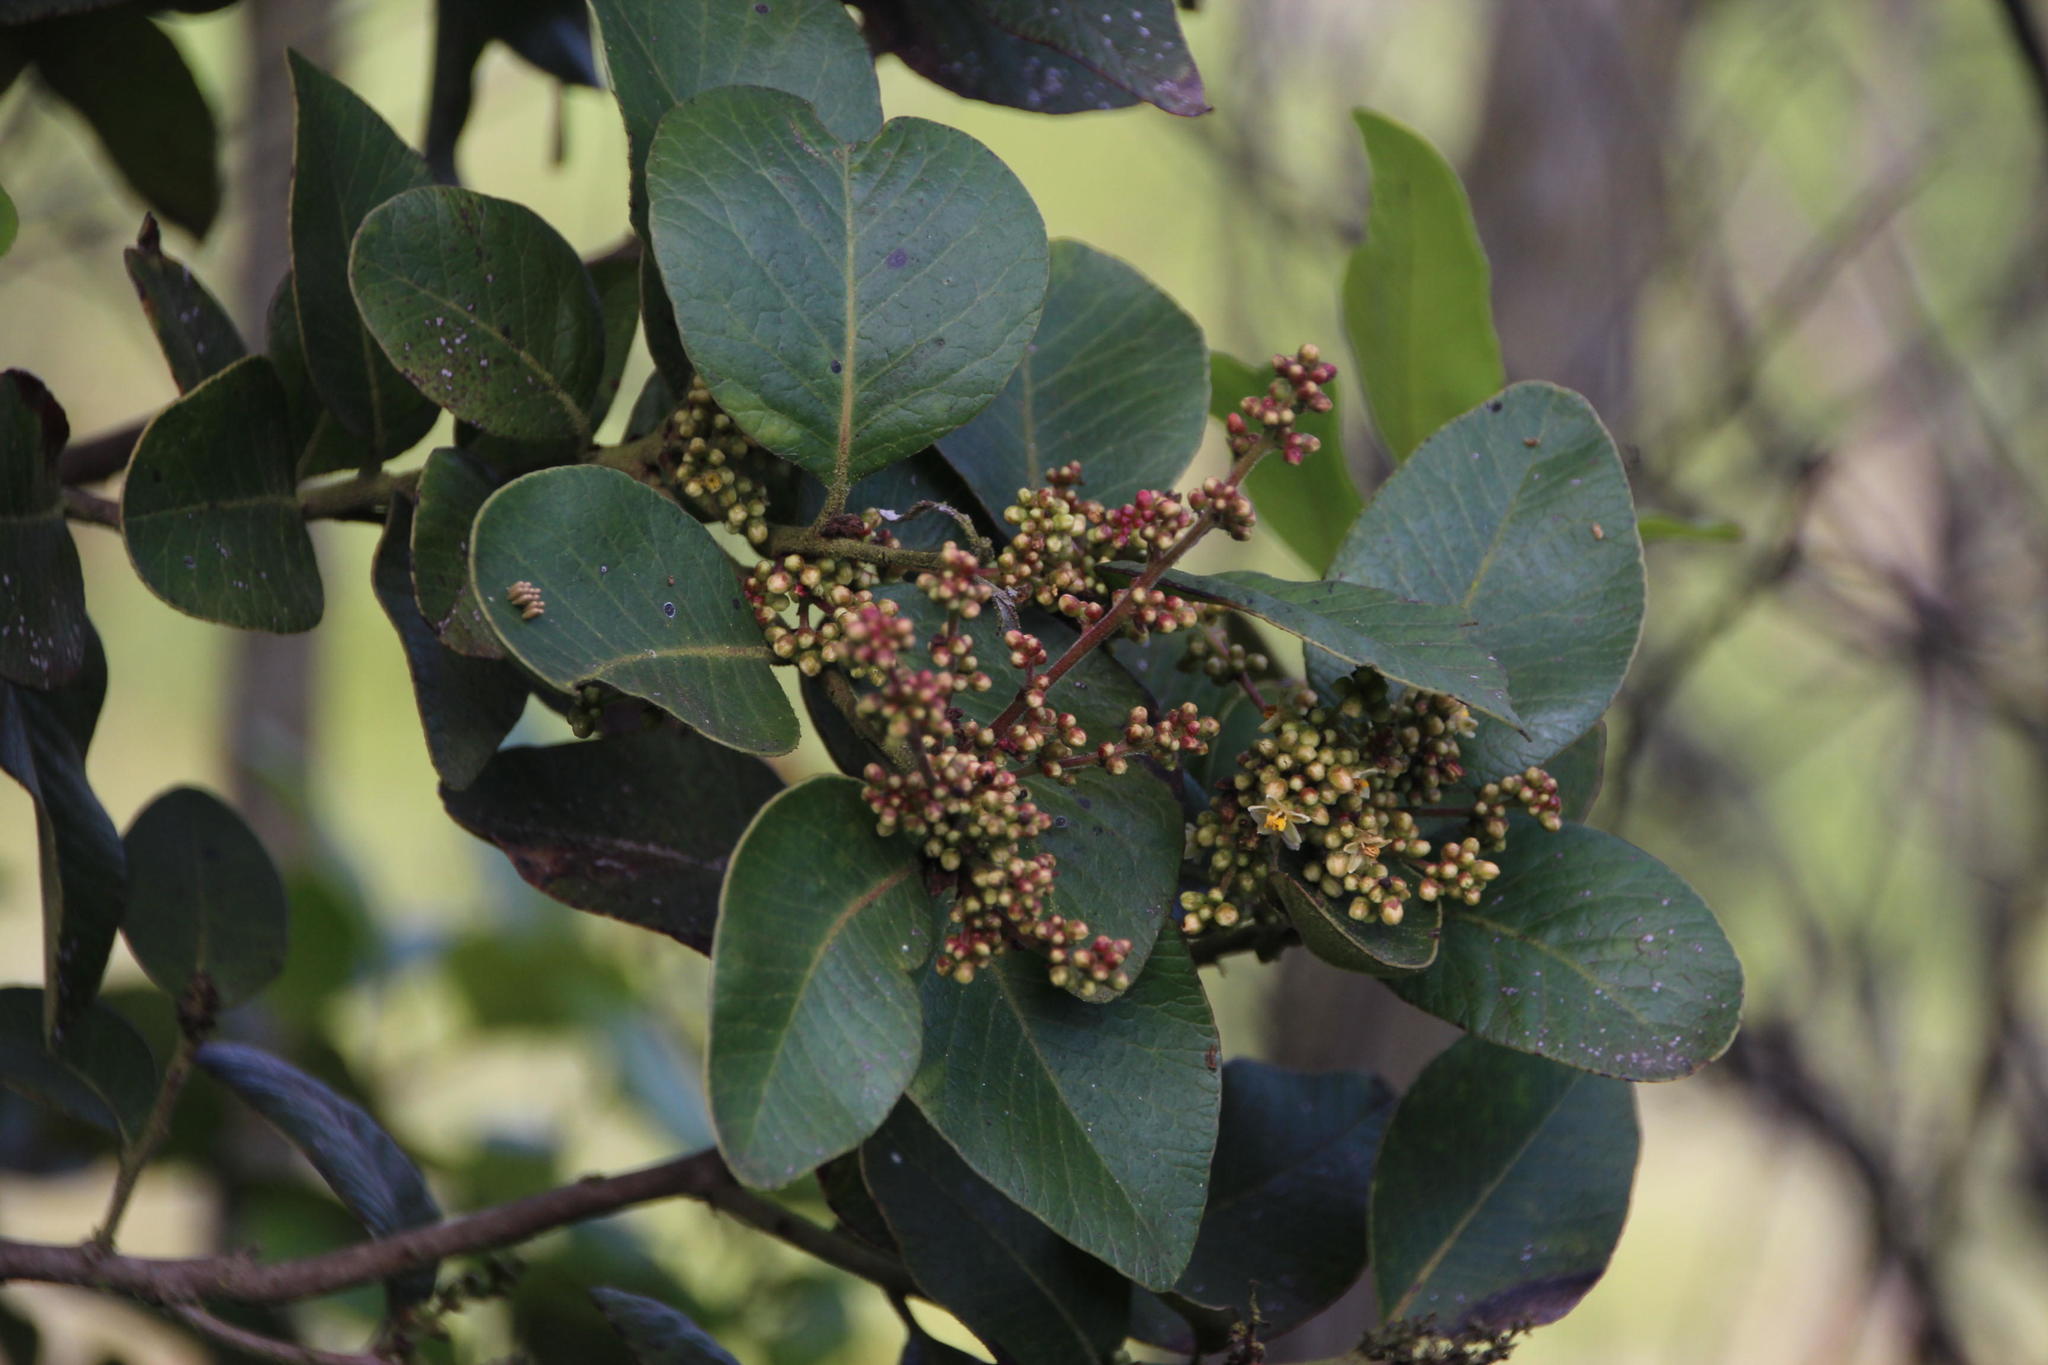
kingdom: Plantae
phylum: Tracheophyta
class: Magnoliopsida
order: Sapindales
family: Anacardiaceae
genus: Lithraea
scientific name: Lithraea caustica
